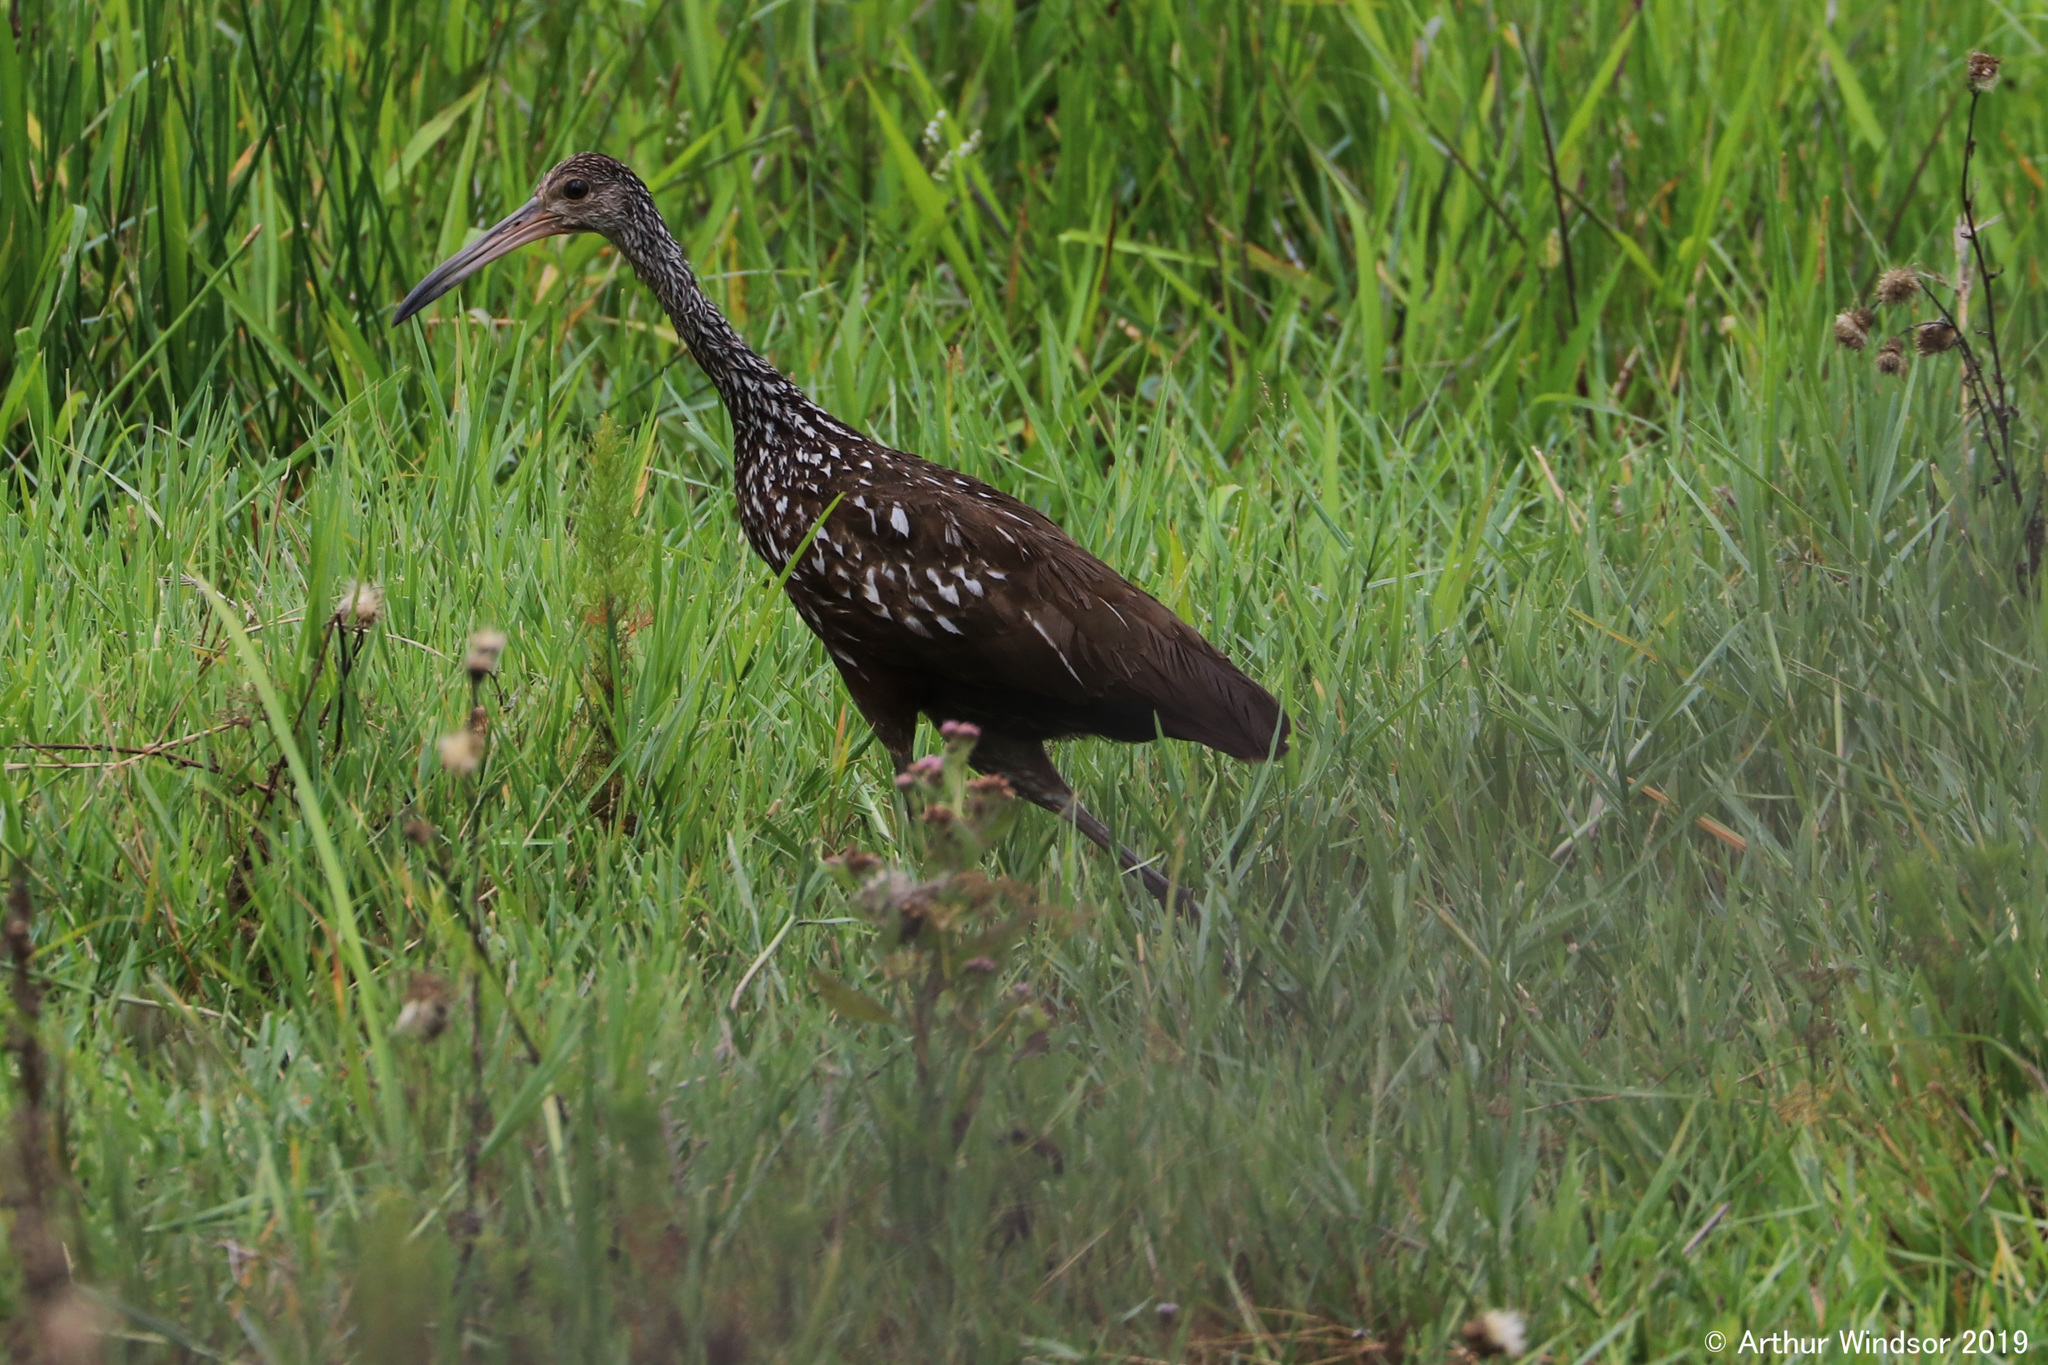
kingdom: Animalia
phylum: Chordata
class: Aves
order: Gruiformes
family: Aramidae
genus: Aramus
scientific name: Aramus guarauna
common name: Limpkin
